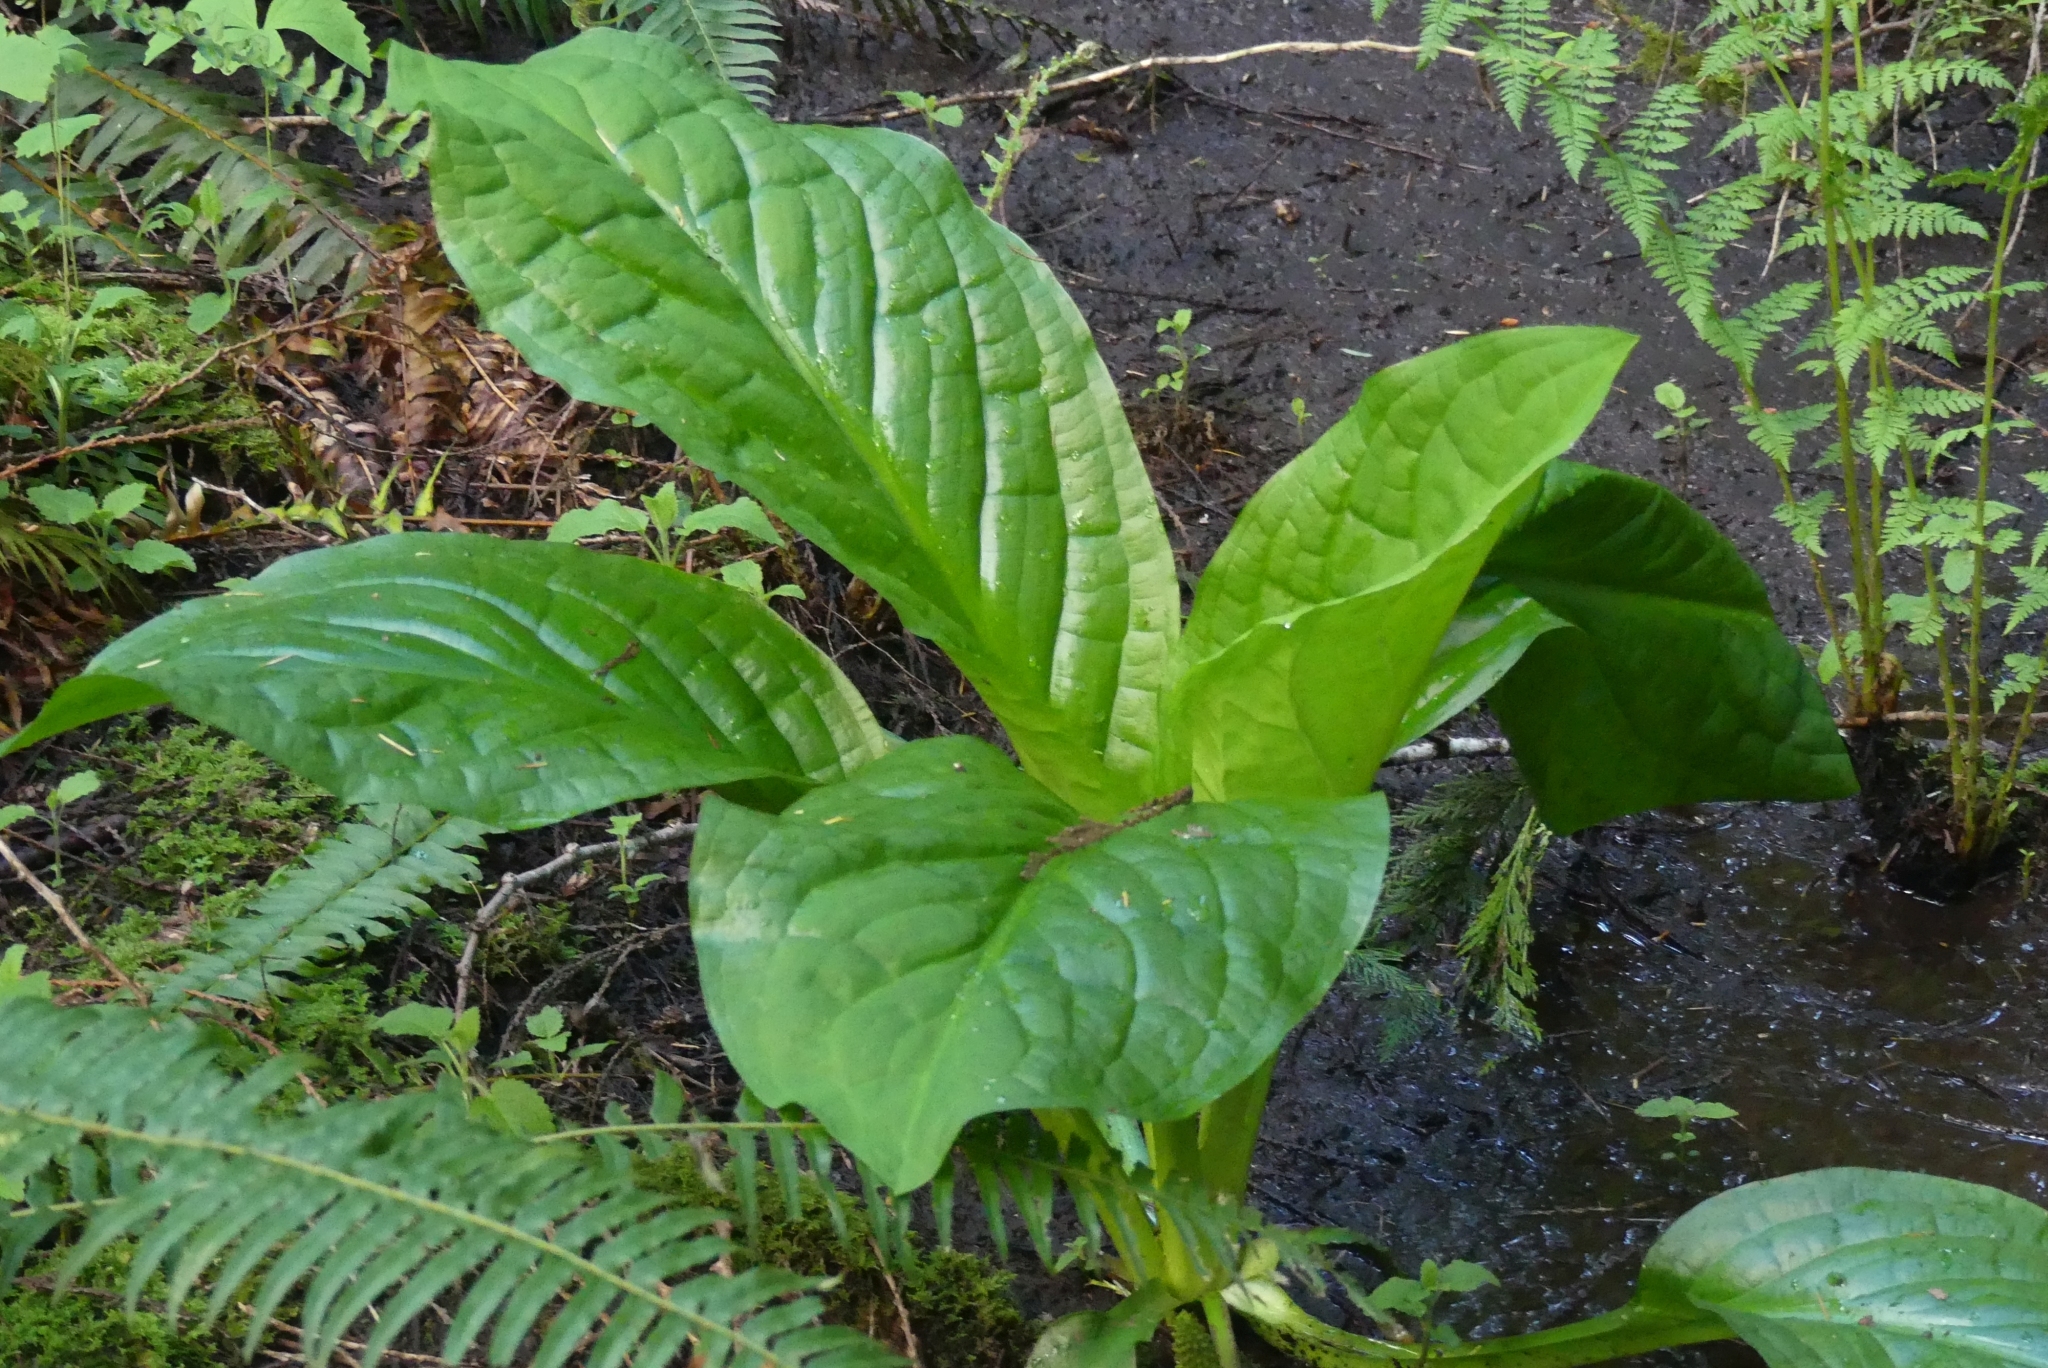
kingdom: Plantae
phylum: Tracheophyta
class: Liliopsida
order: Alismatales
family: Araceae
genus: Lysichiton
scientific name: Lysichiton americanus
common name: American skunk cabbage
